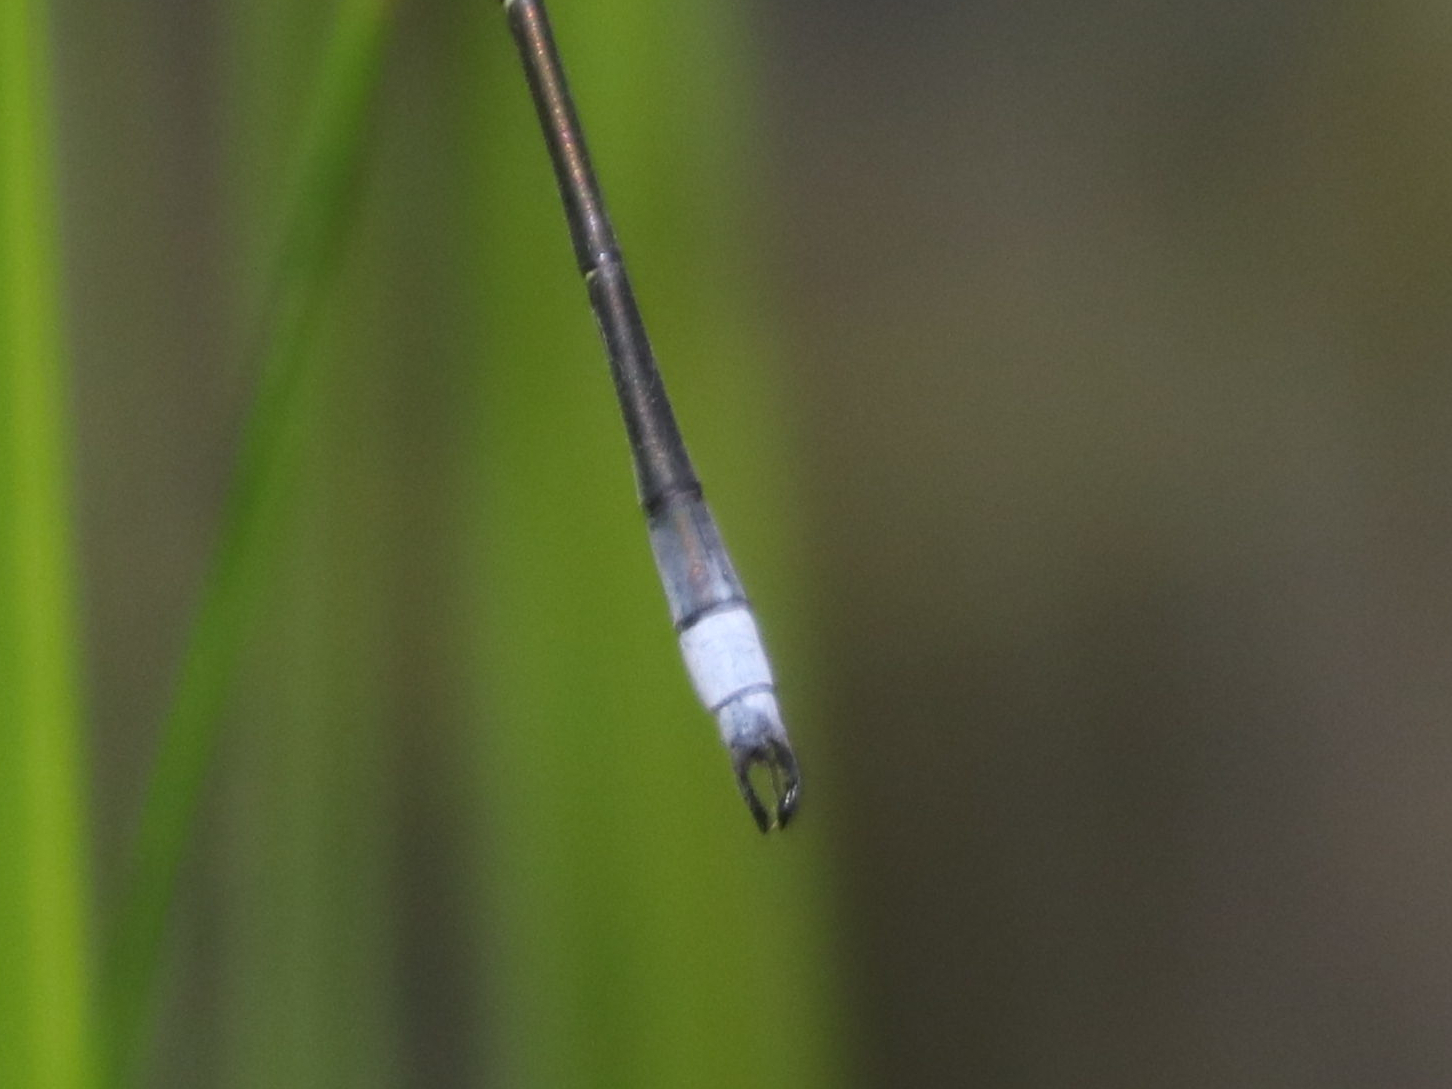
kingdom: Animalia
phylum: Arthropoda
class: Insecta
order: Odonata
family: Lestidae
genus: Lestes
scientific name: Lestes vigilax
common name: Swamp spreadwing
